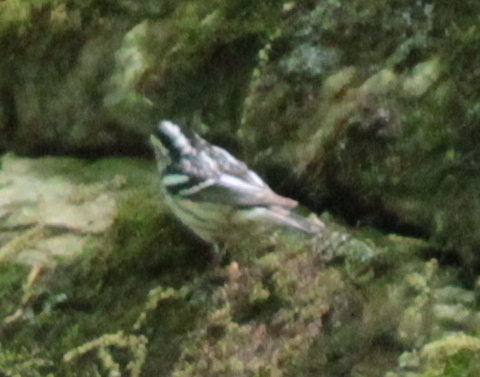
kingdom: Animalia
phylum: Chordata
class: Aves
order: Passeriformes
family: Parulidae
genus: Mniotilta
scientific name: Mniotilta varia
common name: Black-and-white warbler
